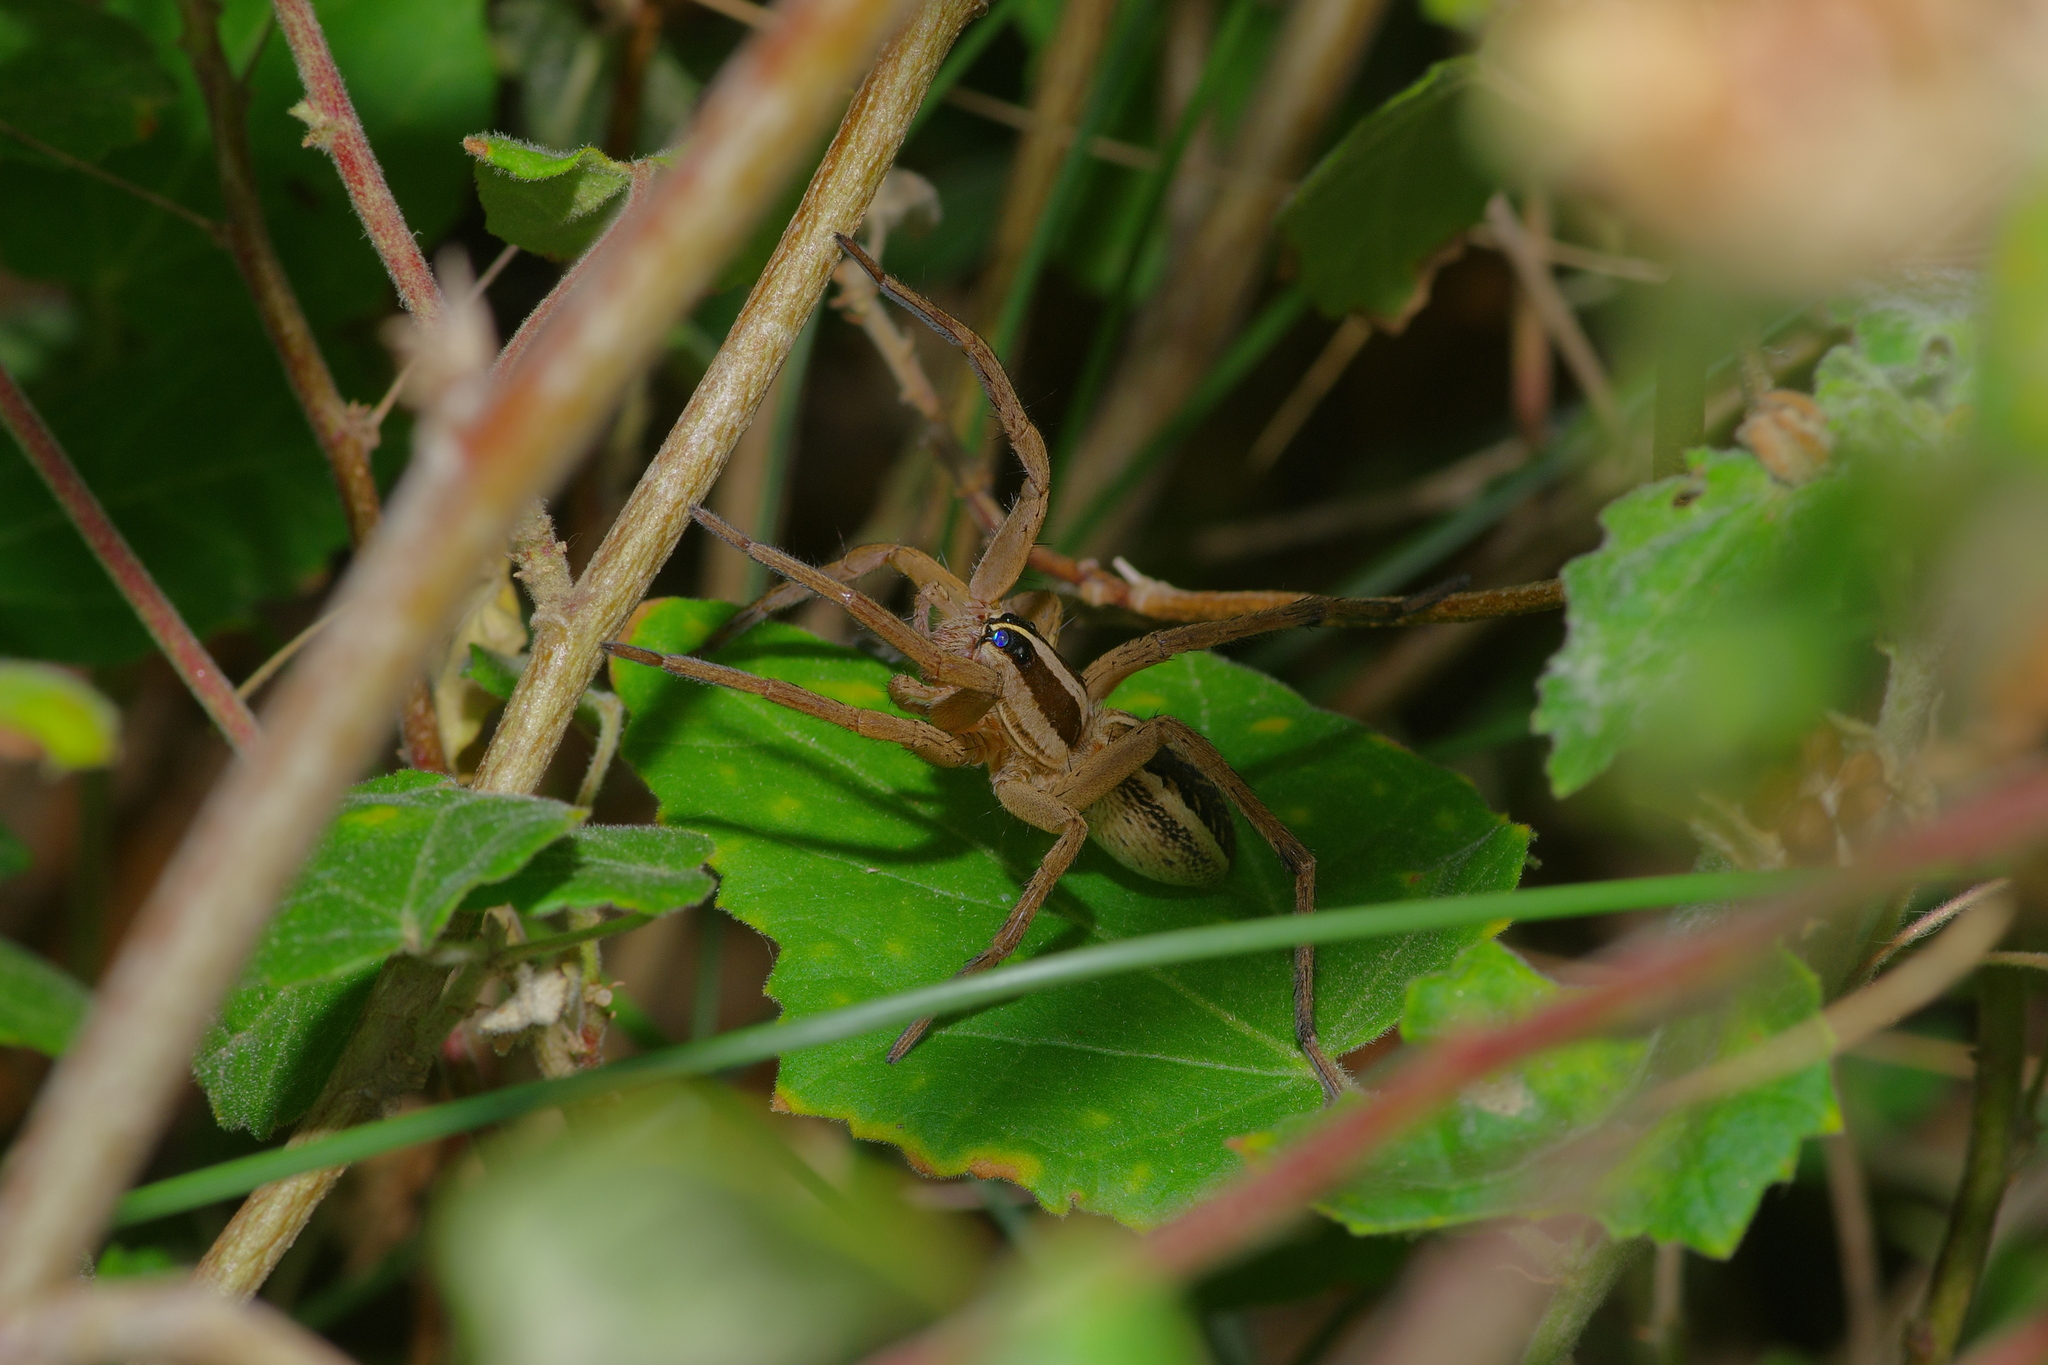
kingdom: Animalia
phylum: Arthropoda
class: Arachnida
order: Araneae
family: Lycosidae
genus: Rabidosa
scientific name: Rabidosa rabida
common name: Rabid wolf spider
